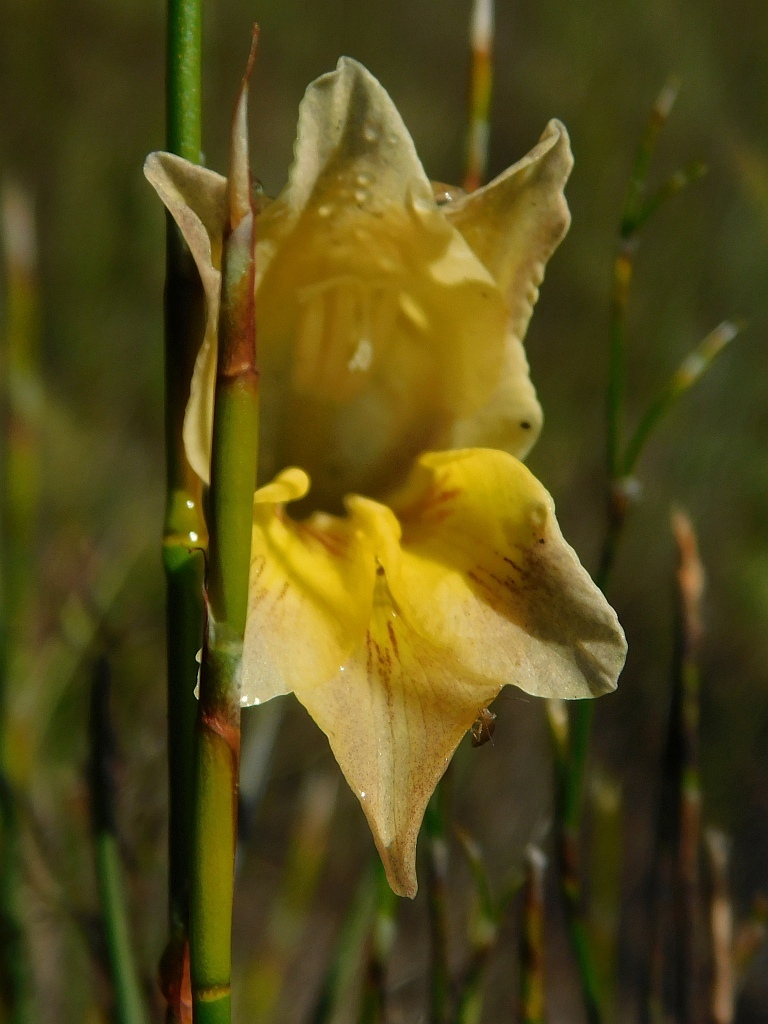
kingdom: Plantae
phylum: Tracheophyta
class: Liliopsida
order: Asparagales
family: Iridaceae
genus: Gladiolus
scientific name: Gladiolus carinatus
